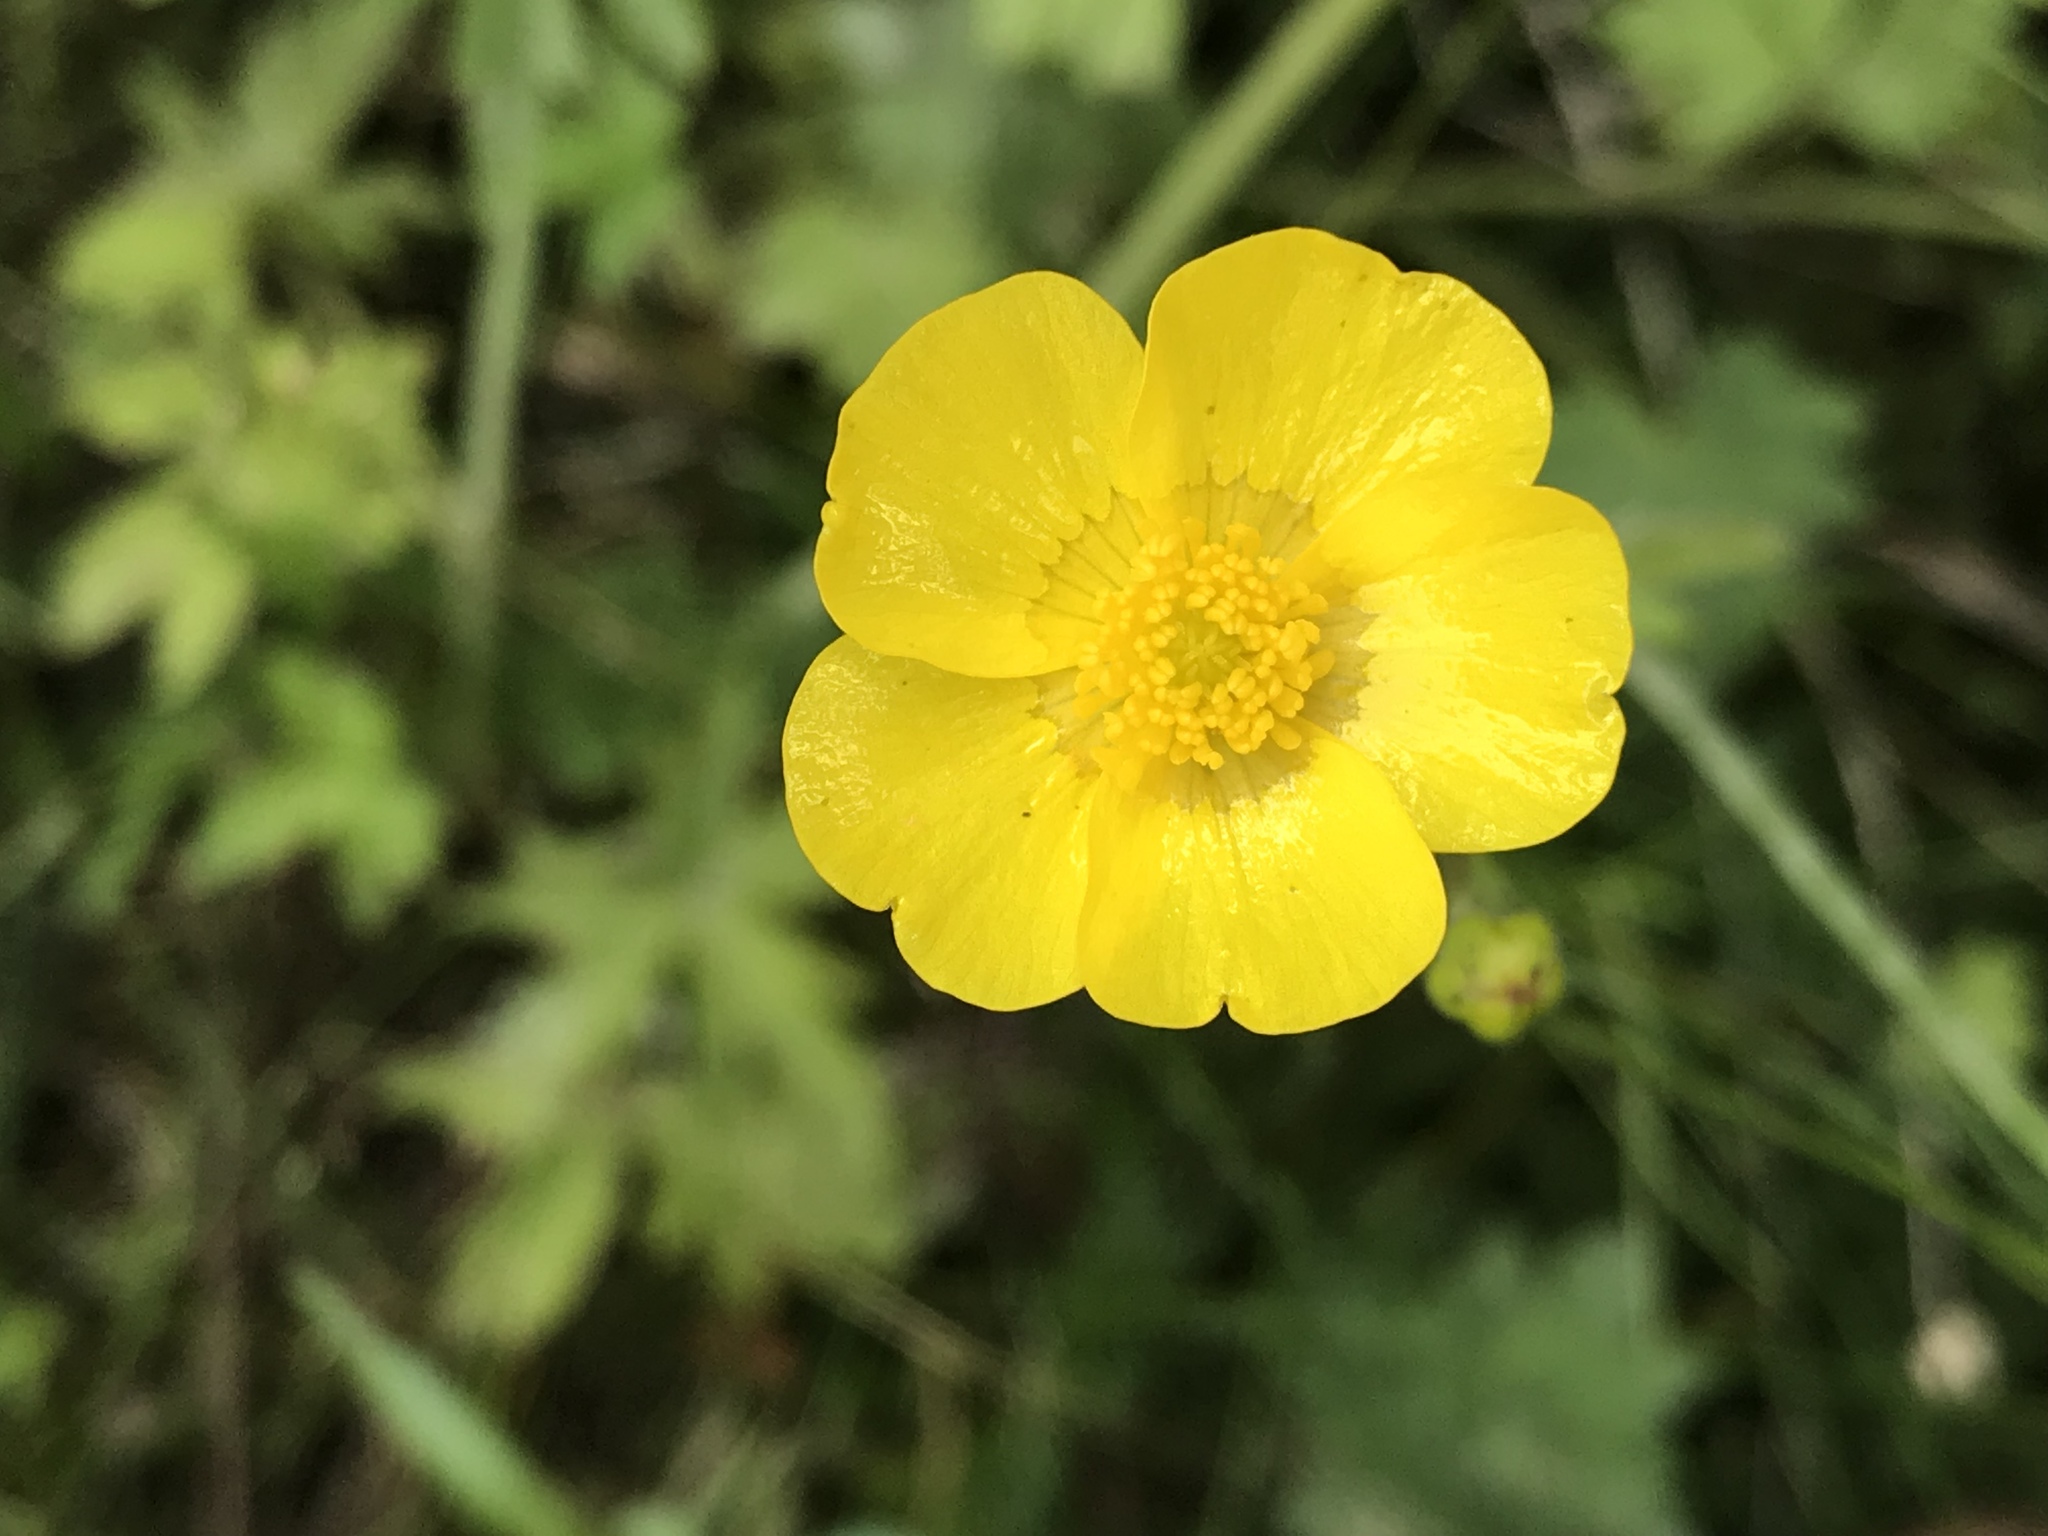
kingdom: Plantae
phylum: Tracheophyta
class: Magnoliopsida
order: Ranunculales
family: Ranunculaceae
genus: Ranunculus
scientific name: Ranunculus acris
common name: Meadow buttercup
